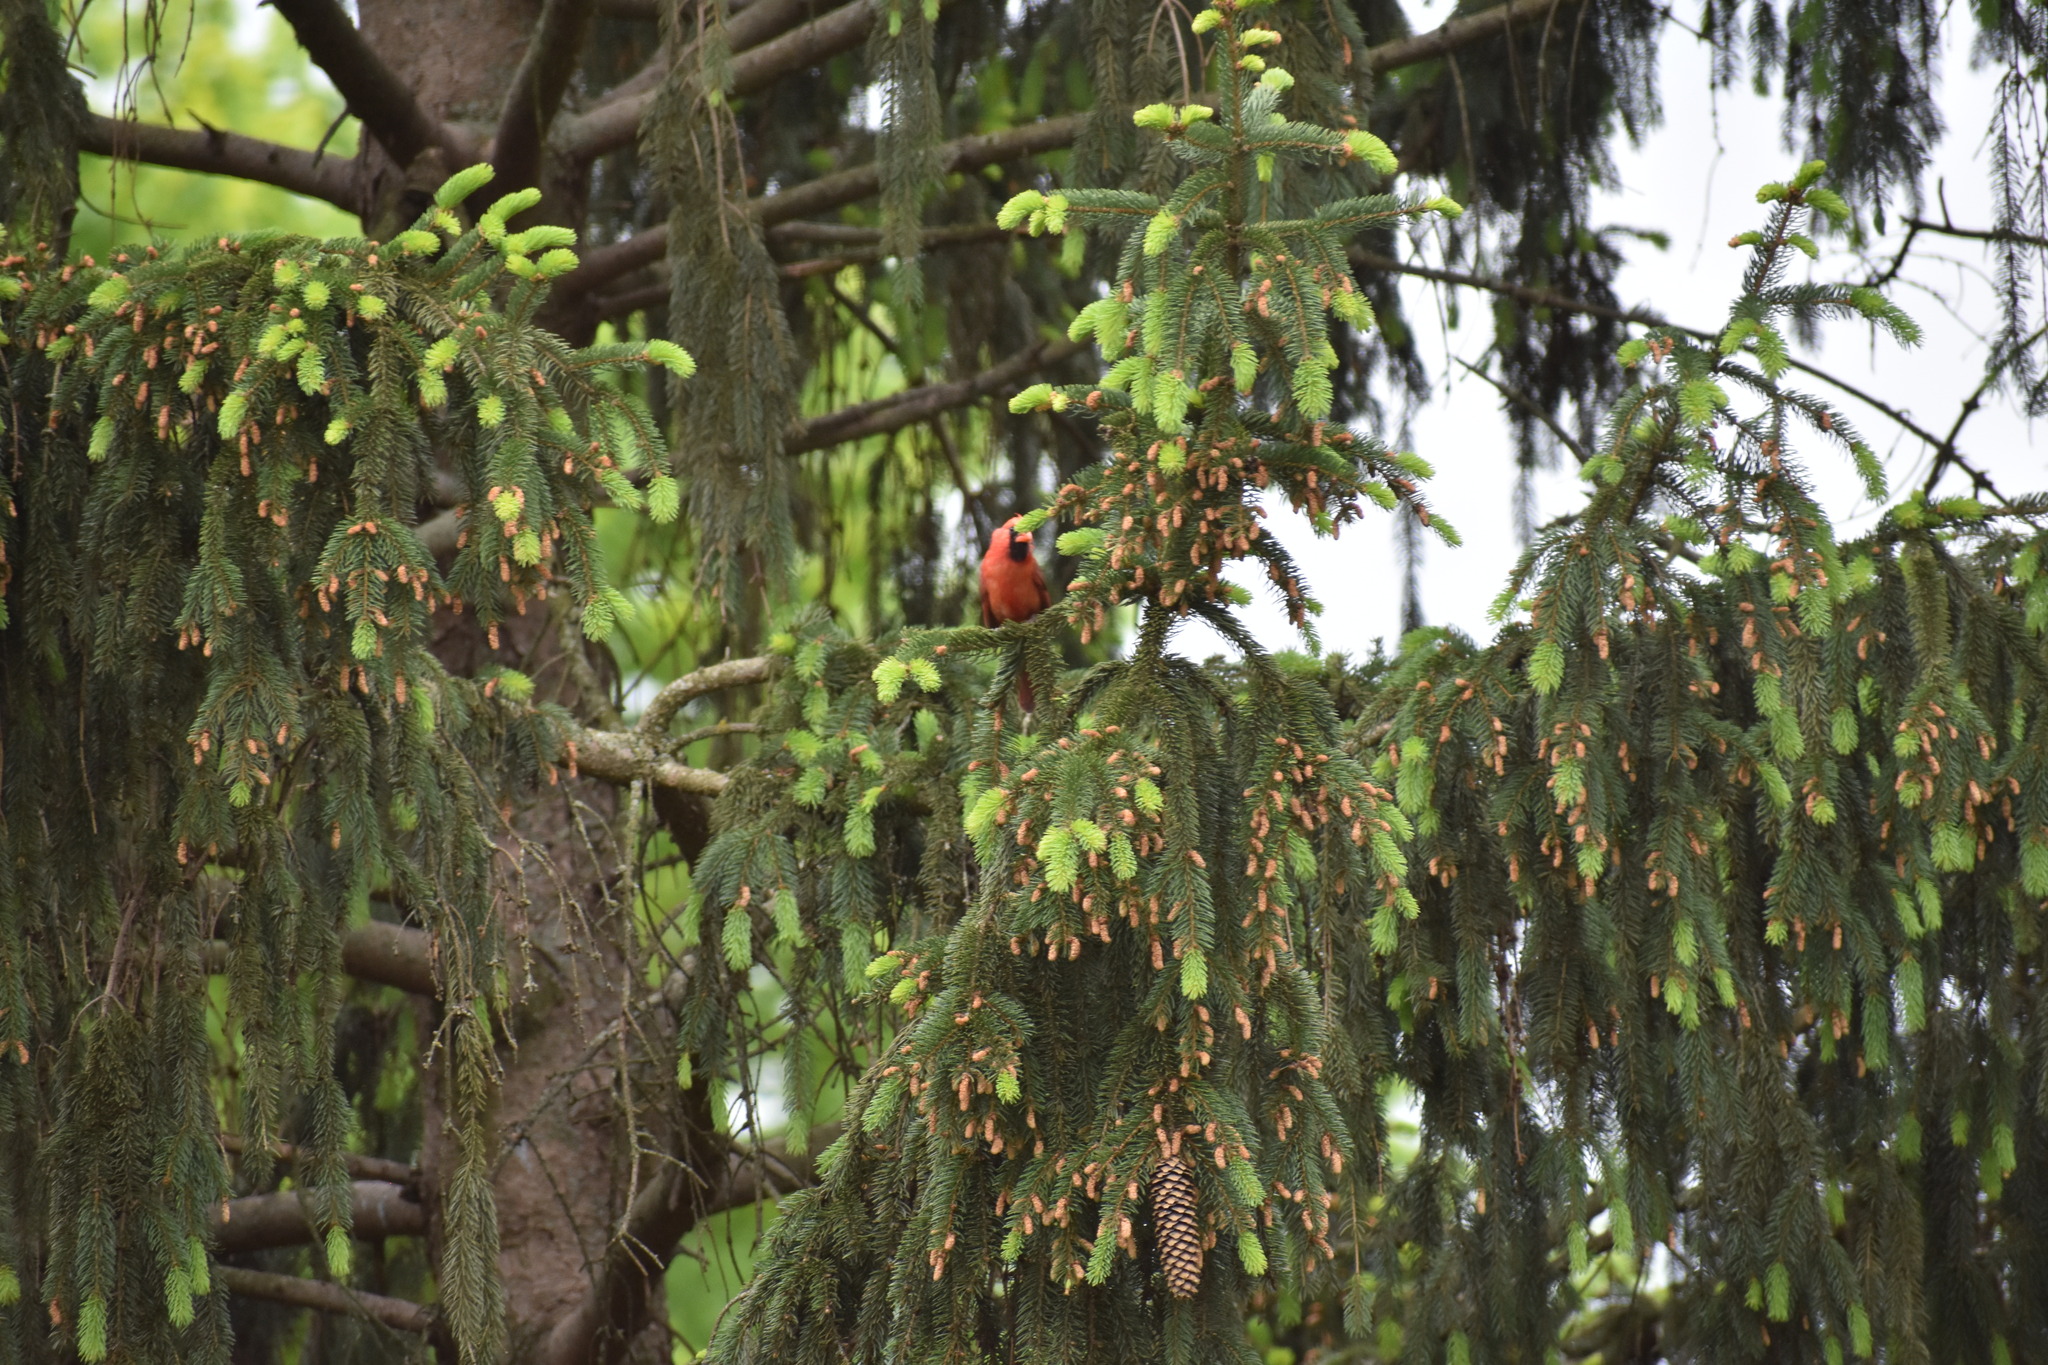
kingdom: Animalia
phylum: Chordata
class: Aves
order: Passeriformes
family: Cardinalidae
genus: Cardinalis
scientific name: Cardinalis cardinalis
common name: Northern cardinal
